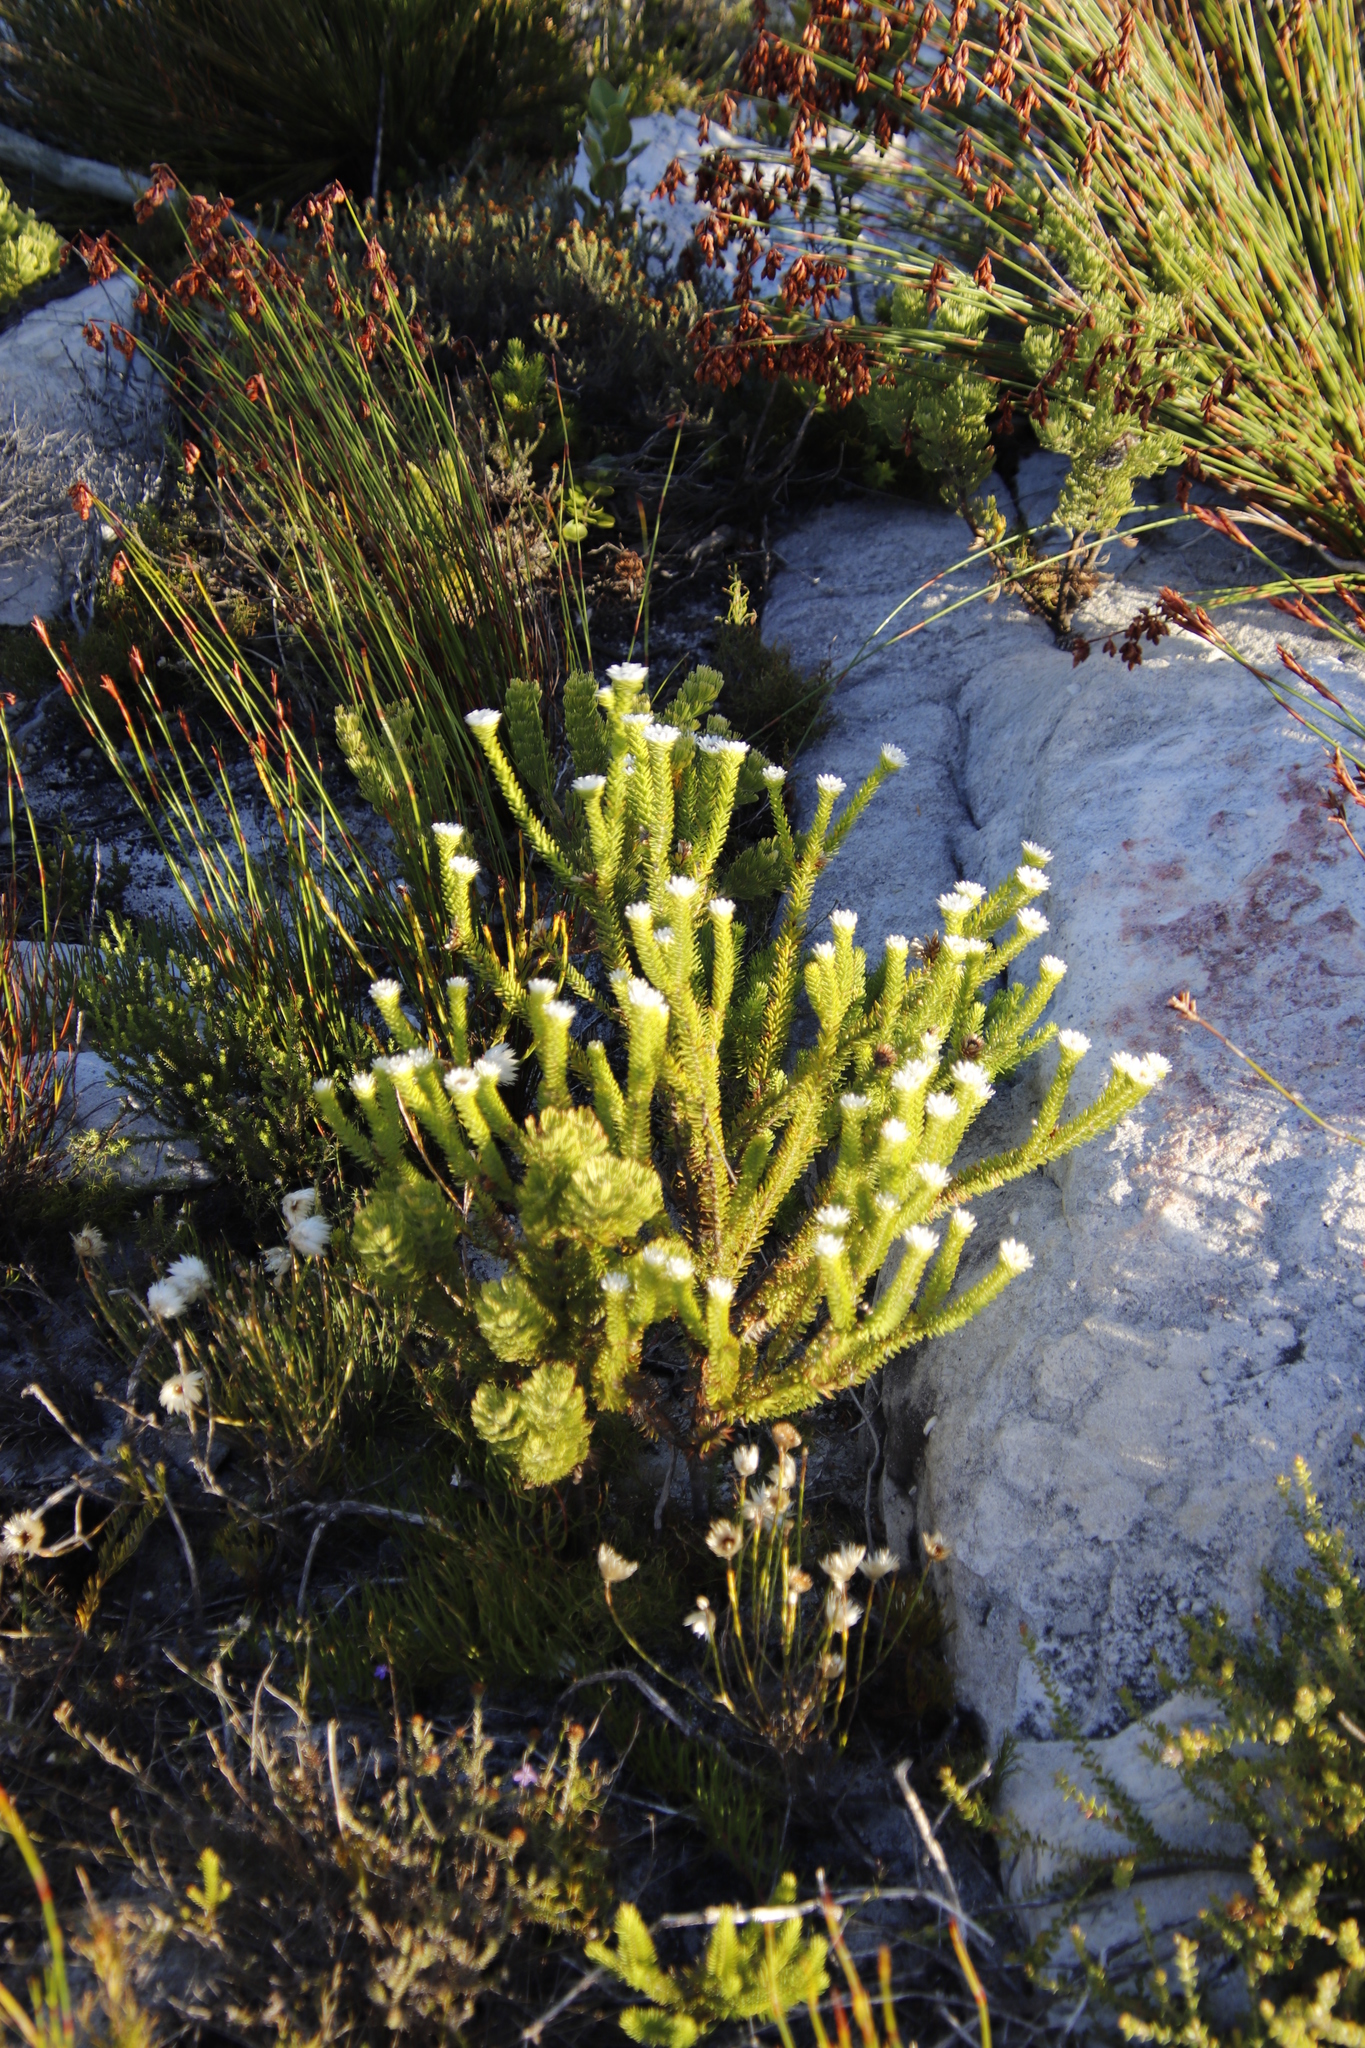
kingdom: Plantae
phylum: Tracheophyta
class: Magnoliopsida
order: Bruniales
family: Bruniaceae
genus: Staavia
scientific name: Staavia dodii
